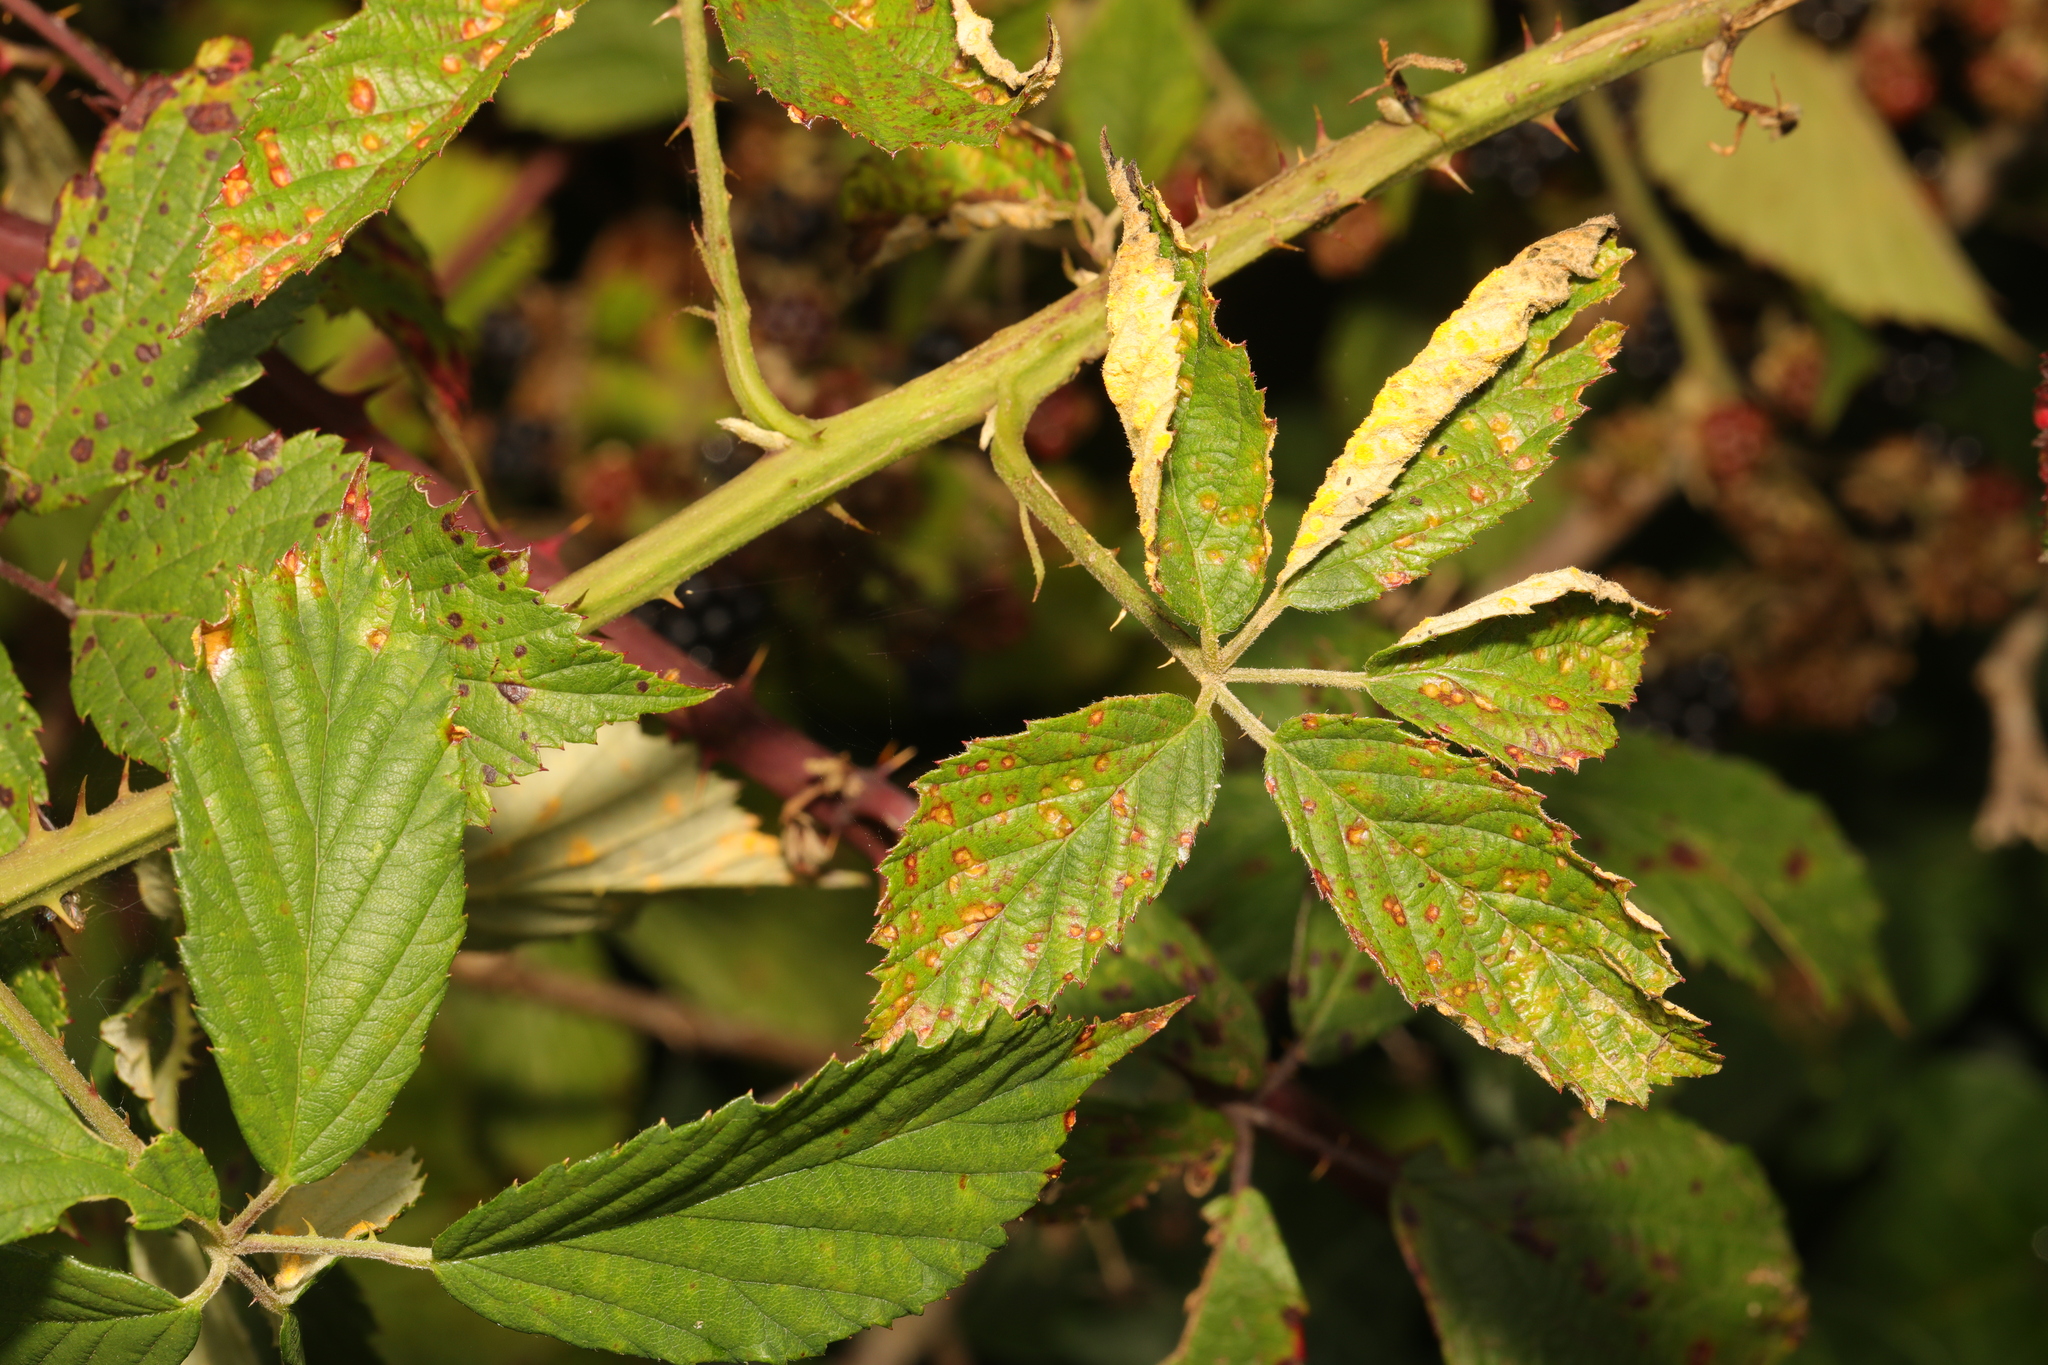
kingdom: Plantae
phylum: Tracheophyta
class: Magnoliopsida
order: Rosales
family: Rosaceae
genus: Rubus
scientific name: Rubus lindleyanus
